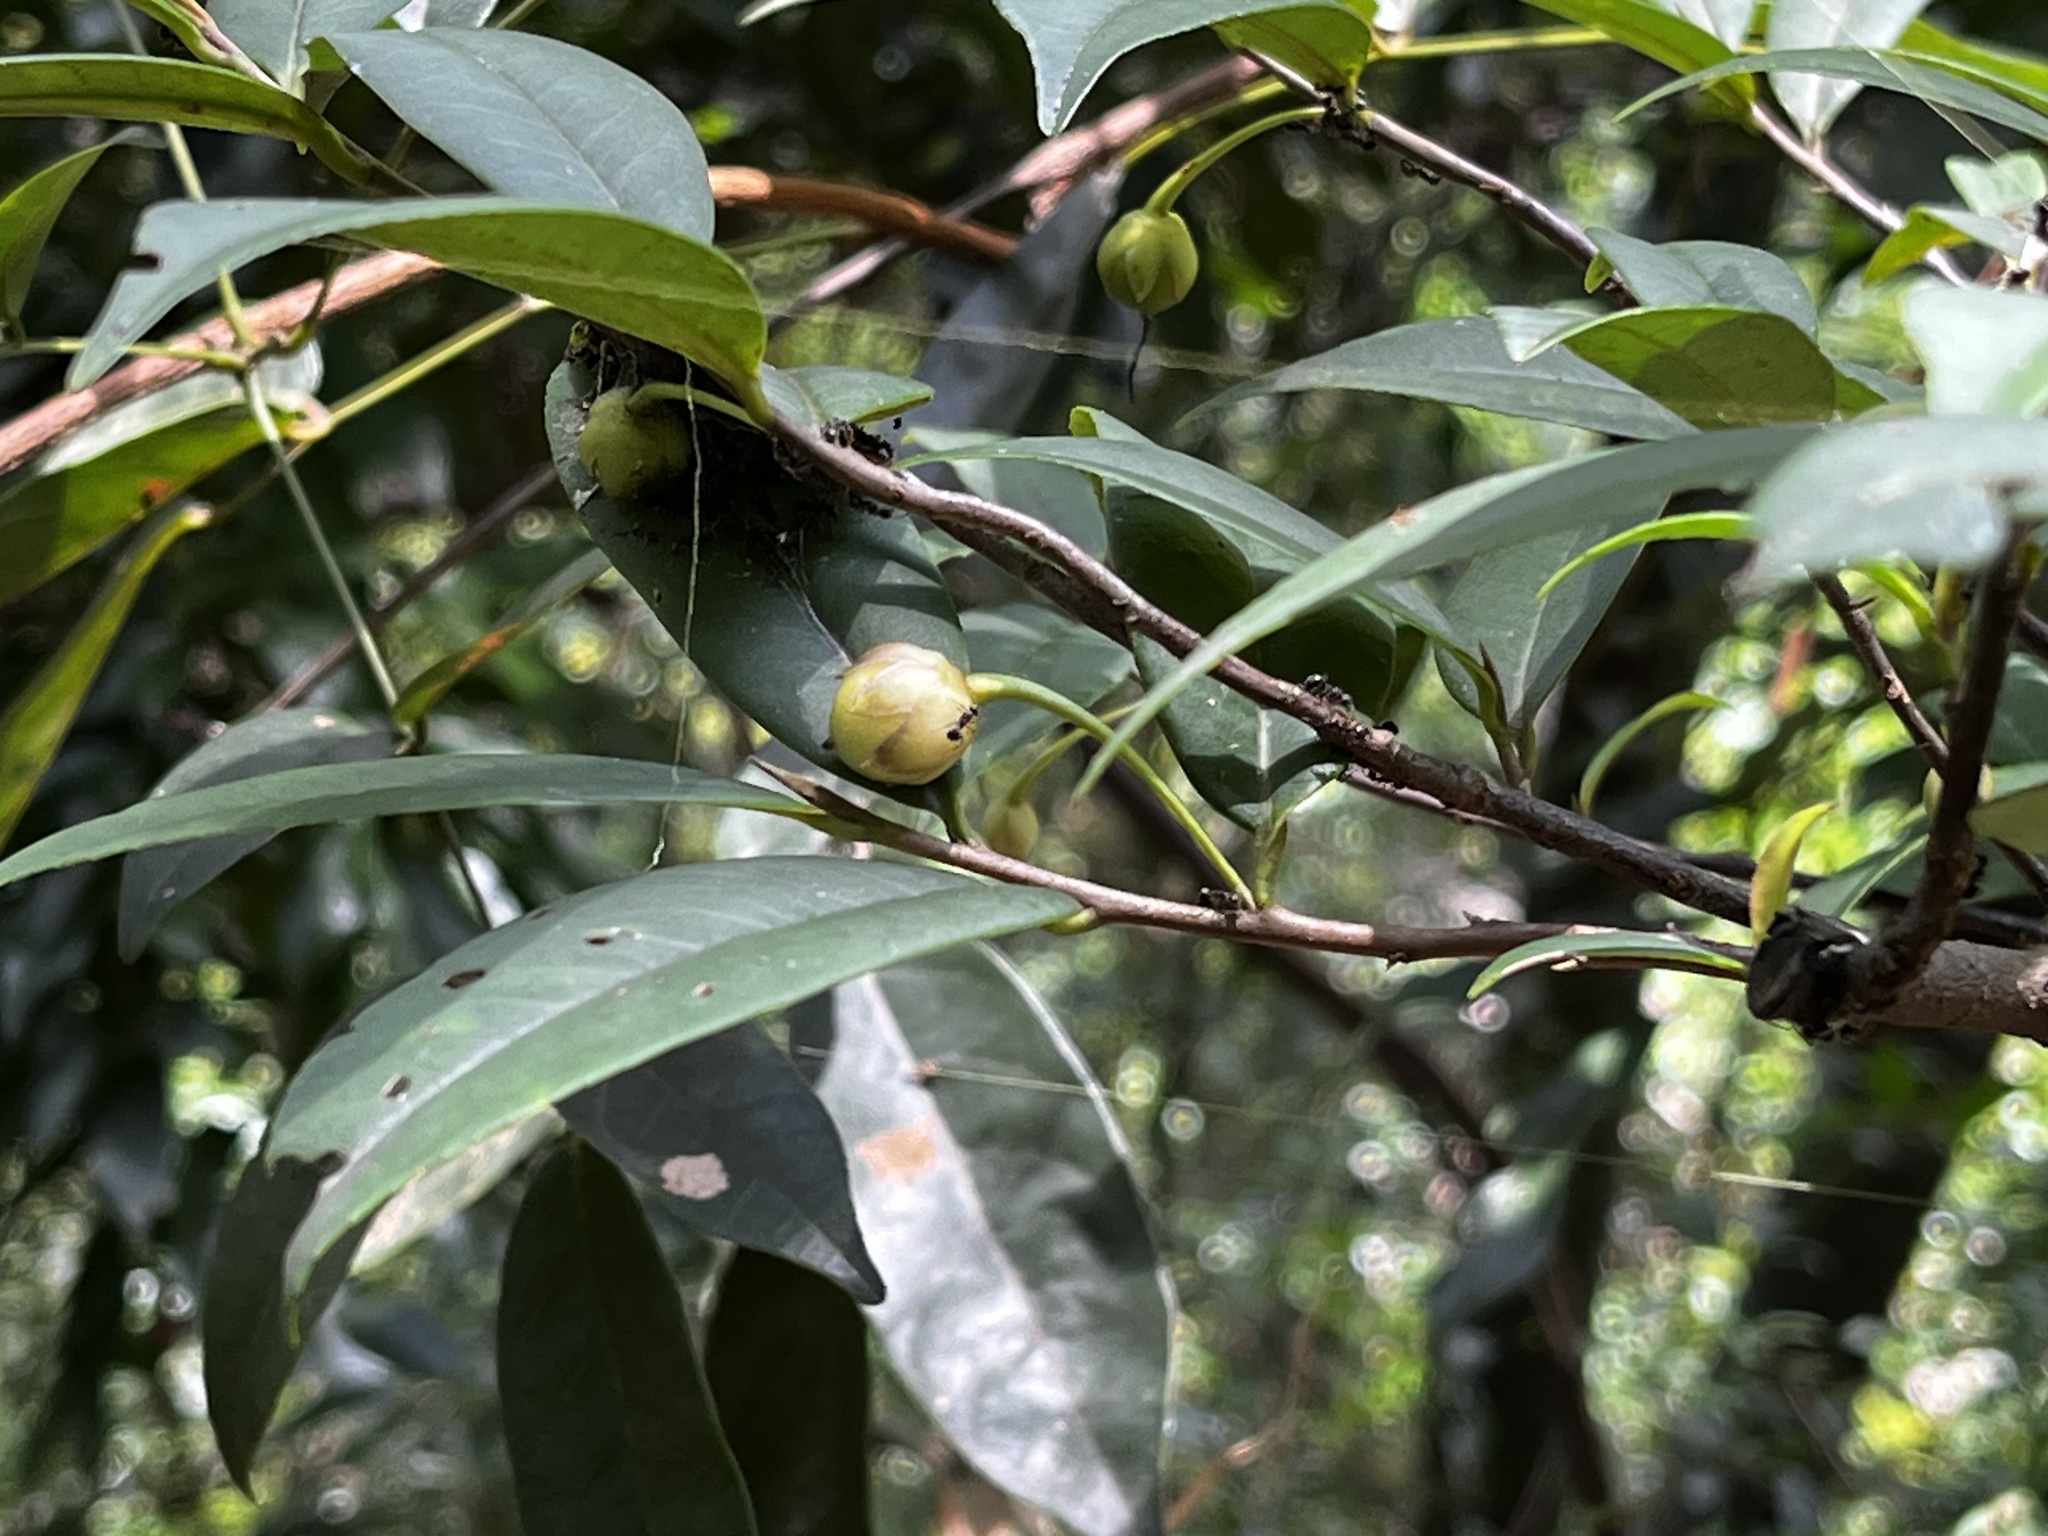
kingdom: Plantae
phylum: Tracheophyta
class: Magnoliopsida
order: Ericales
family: Pentaphylacaceae
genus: Adinandra
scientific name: Adinandra formosana
